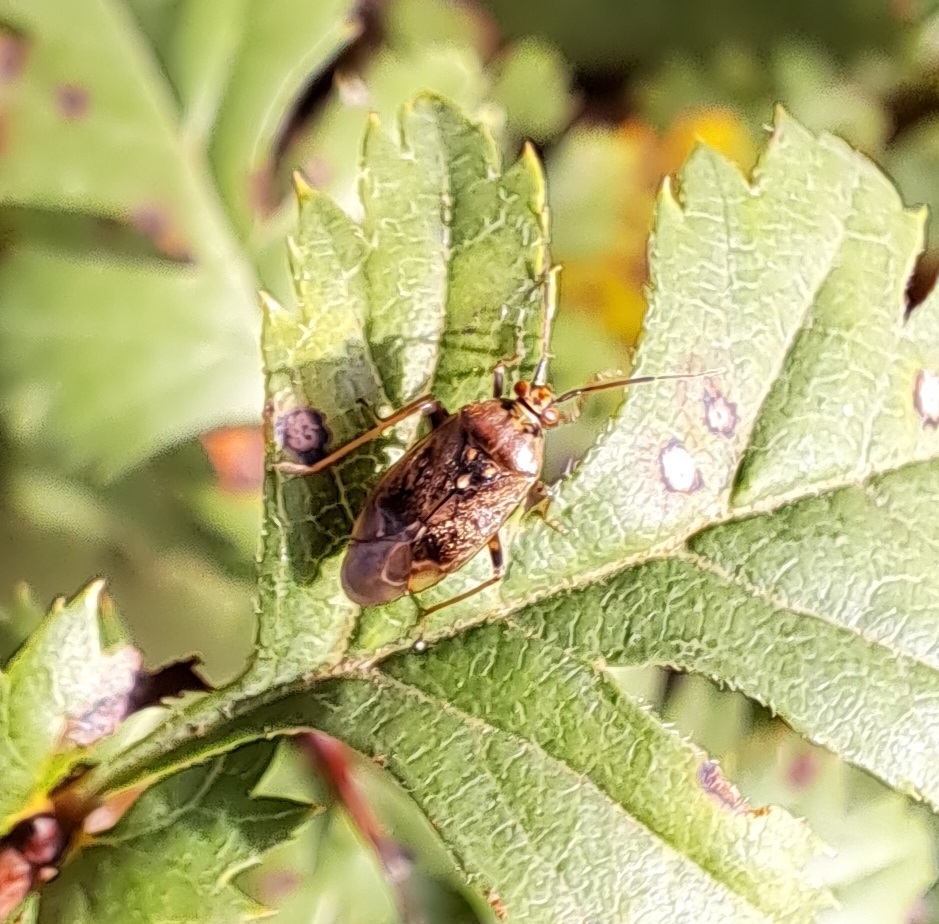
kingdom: Animalia
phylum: Arthropoda
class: Insecta
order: Hemiptera
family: Miridae
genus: Lygus
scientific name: Lygus rugulipennis
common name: European tarnished plant bug
